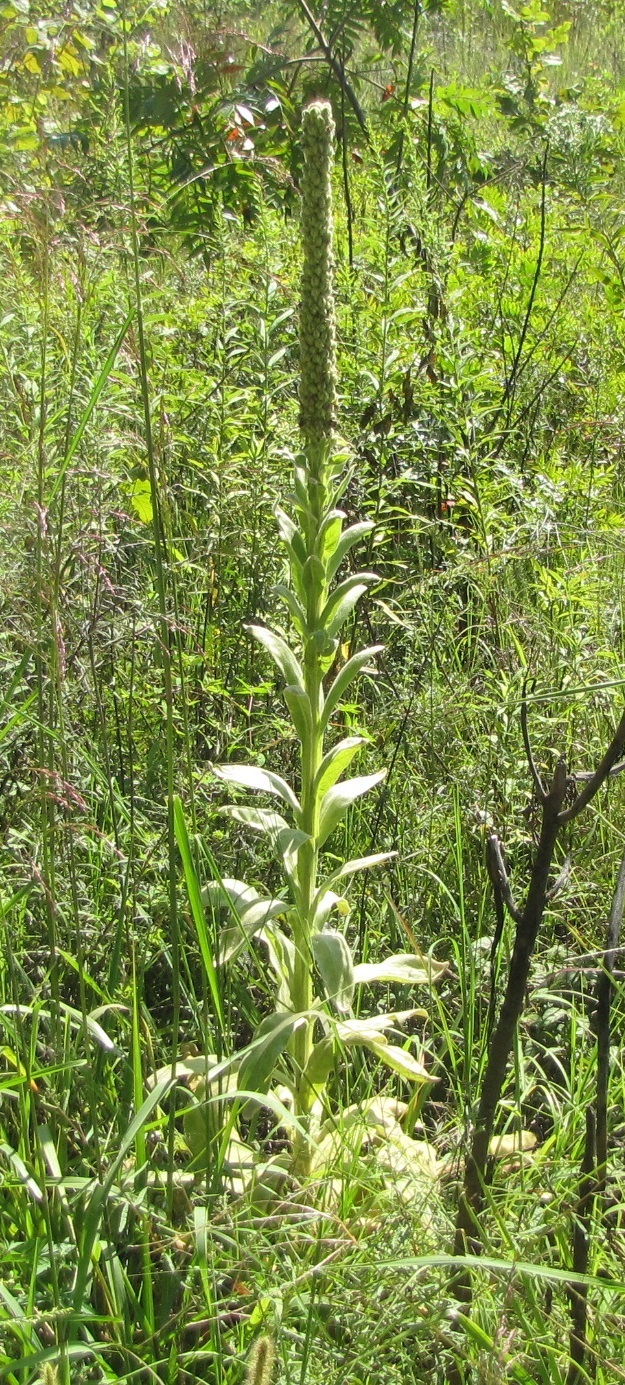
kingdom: Plantae
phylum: Tracheophyta
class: Magnoliopsida
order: Lamiales
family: Scrophulariaceae
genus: Verbascum
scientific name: Verbascum thapsus
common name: Common mullein
